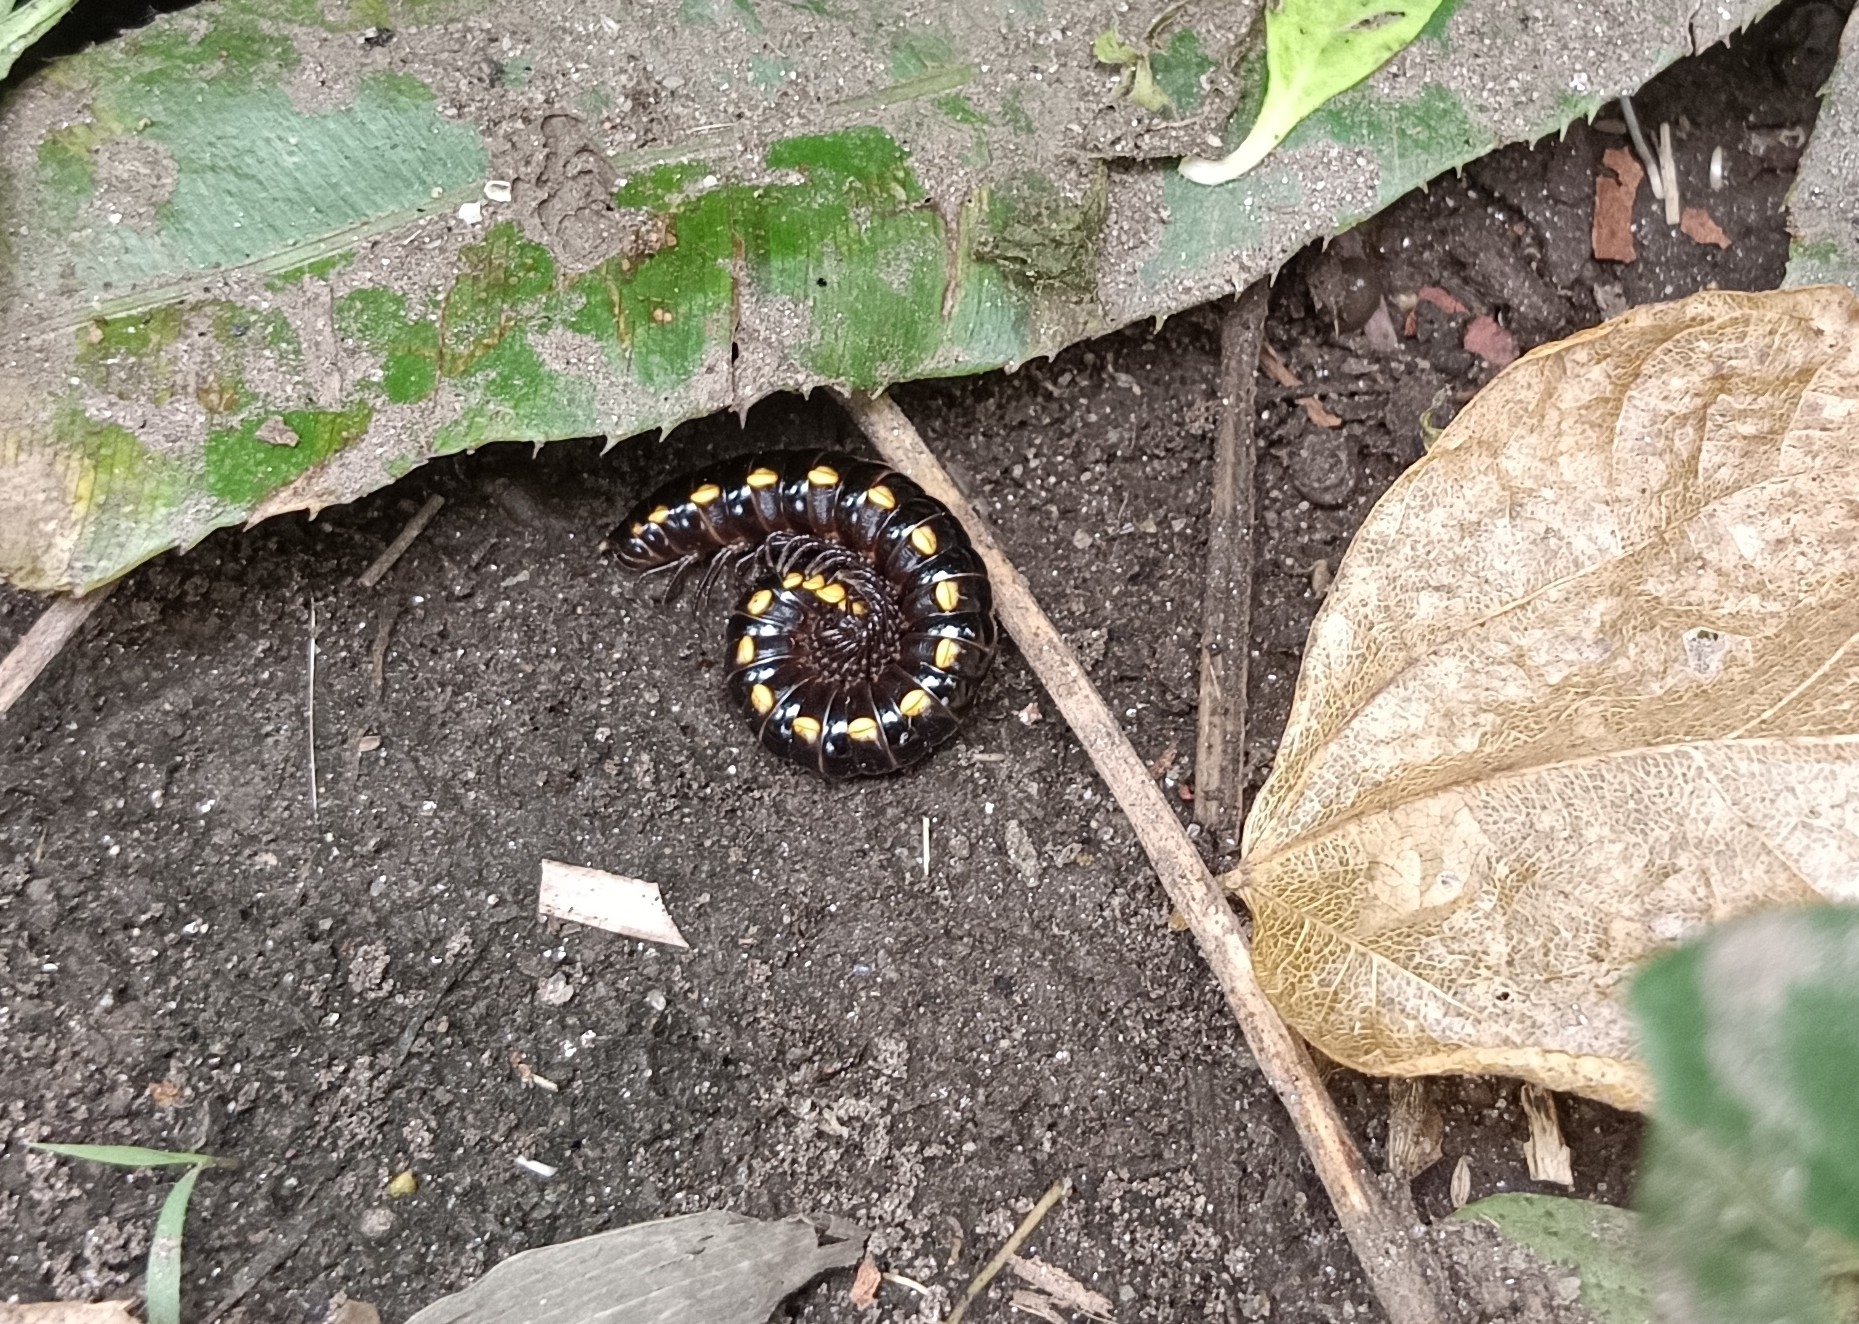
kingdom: Animalia
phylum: Arthropoda
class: Diplopoda
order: Polydesmida
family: Paradoxosomatidae
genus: Anoplodesmus
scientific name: Anoplodesmus saussurii
